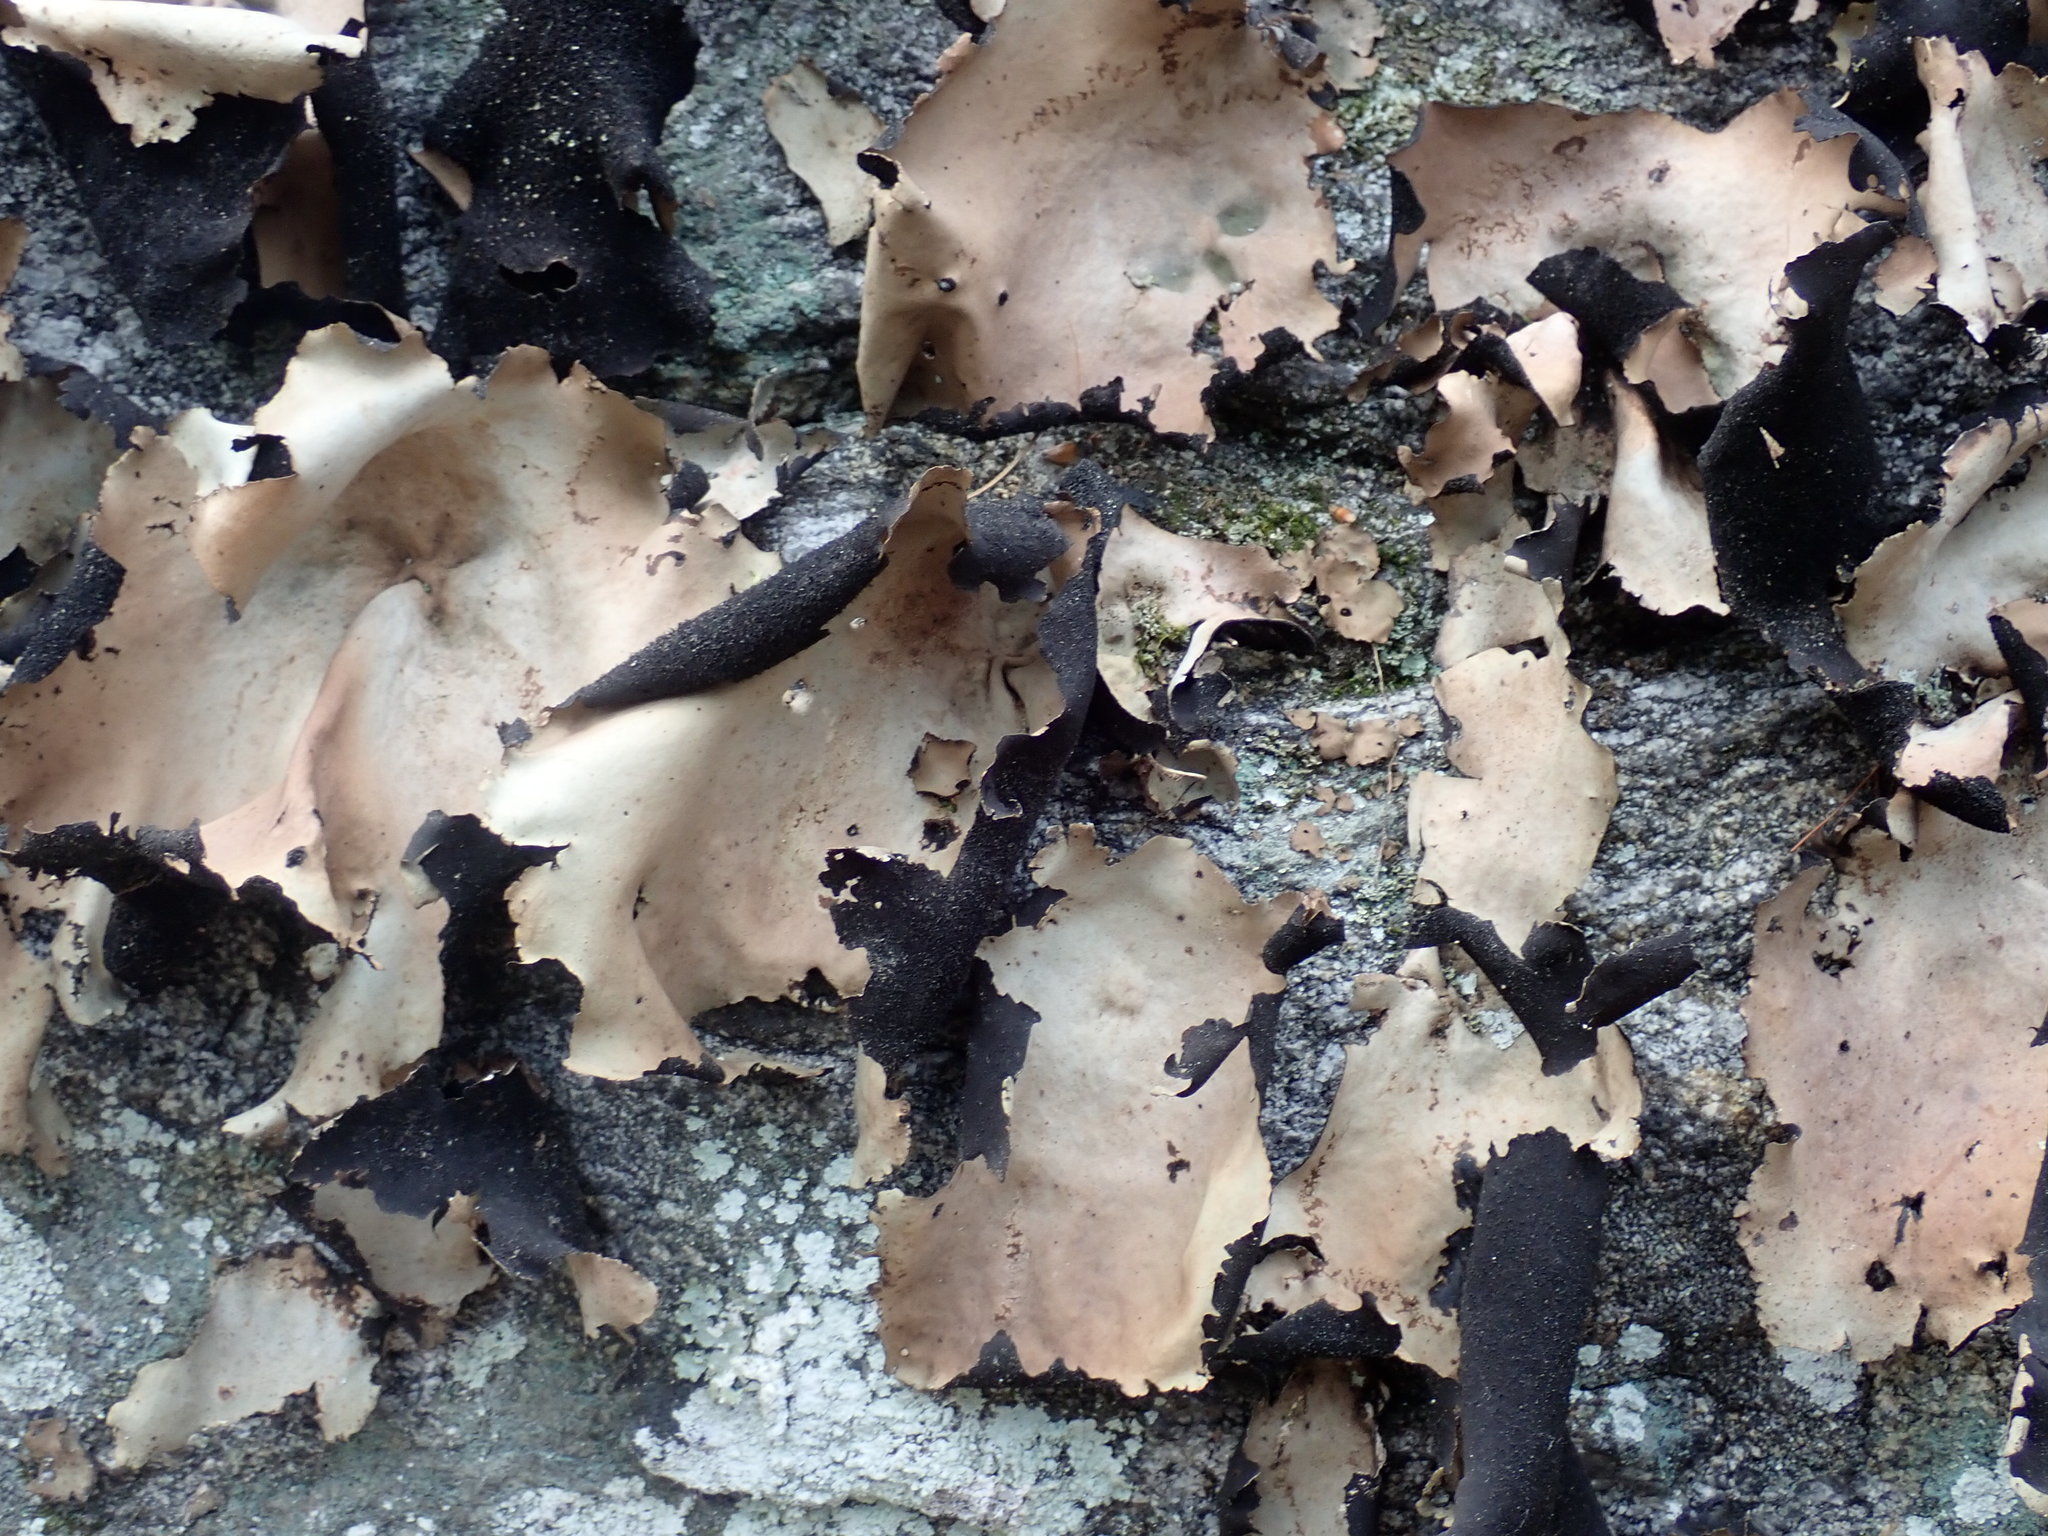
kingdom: Fungi
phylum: Ascomycota
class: Lecanoromycetes
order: Umbilicariales
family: Umbilicariaceae
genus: Umbilicaria
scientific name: Umbilicaria mammulata
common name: Smooth rock tripe
